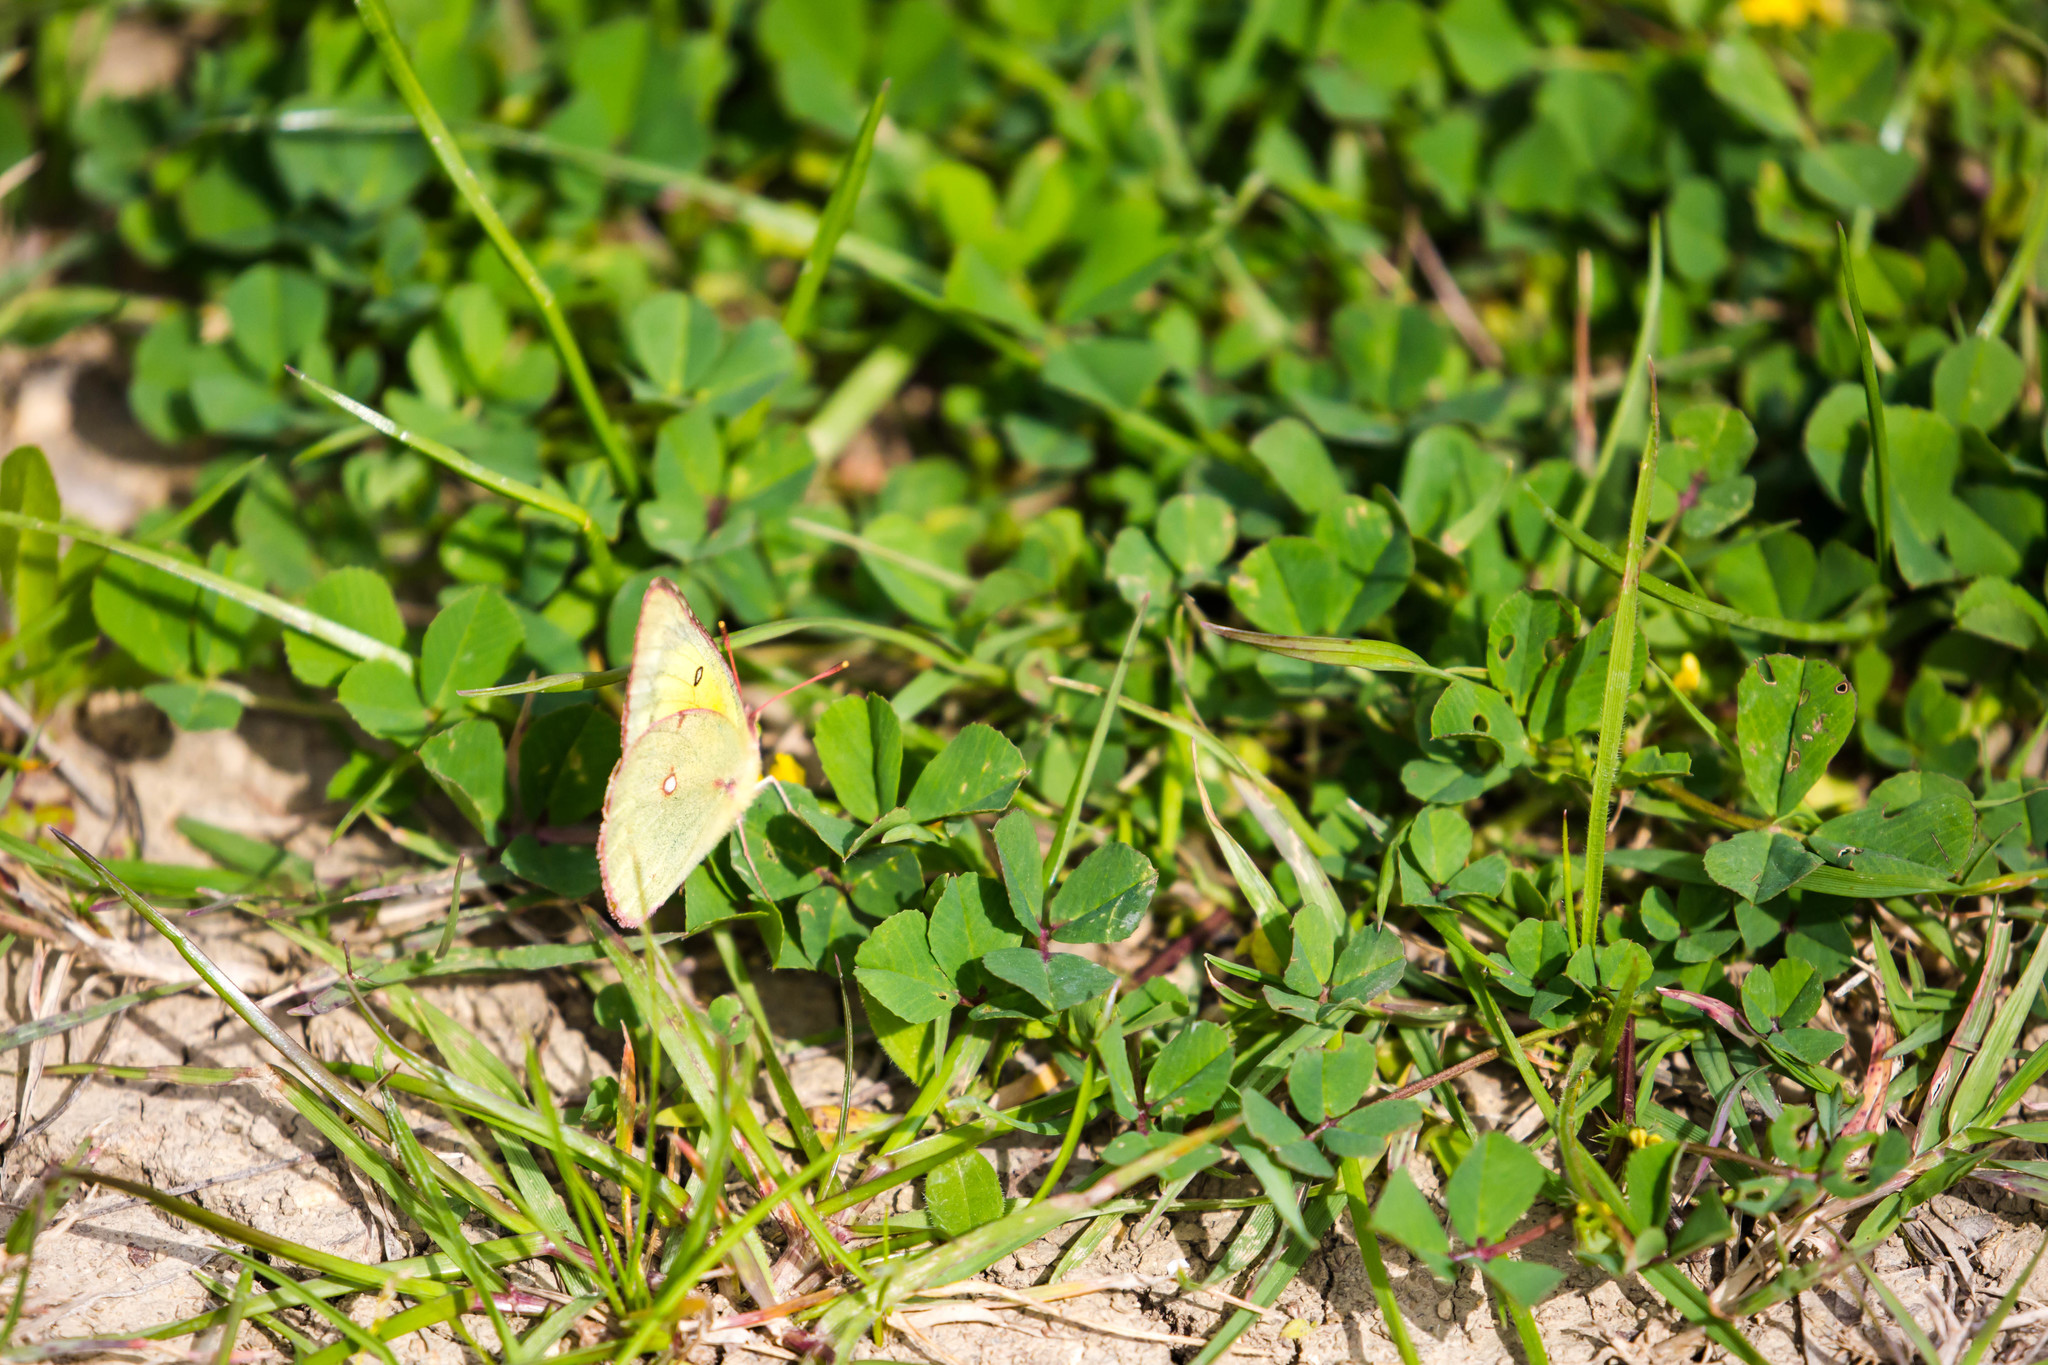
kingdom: Animalia
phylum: Arthropoda
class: Insecta
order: Lepidoptera
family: Pieridae
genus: Colias
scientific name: Colias eurytheme
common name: Alfalfa butterfly
